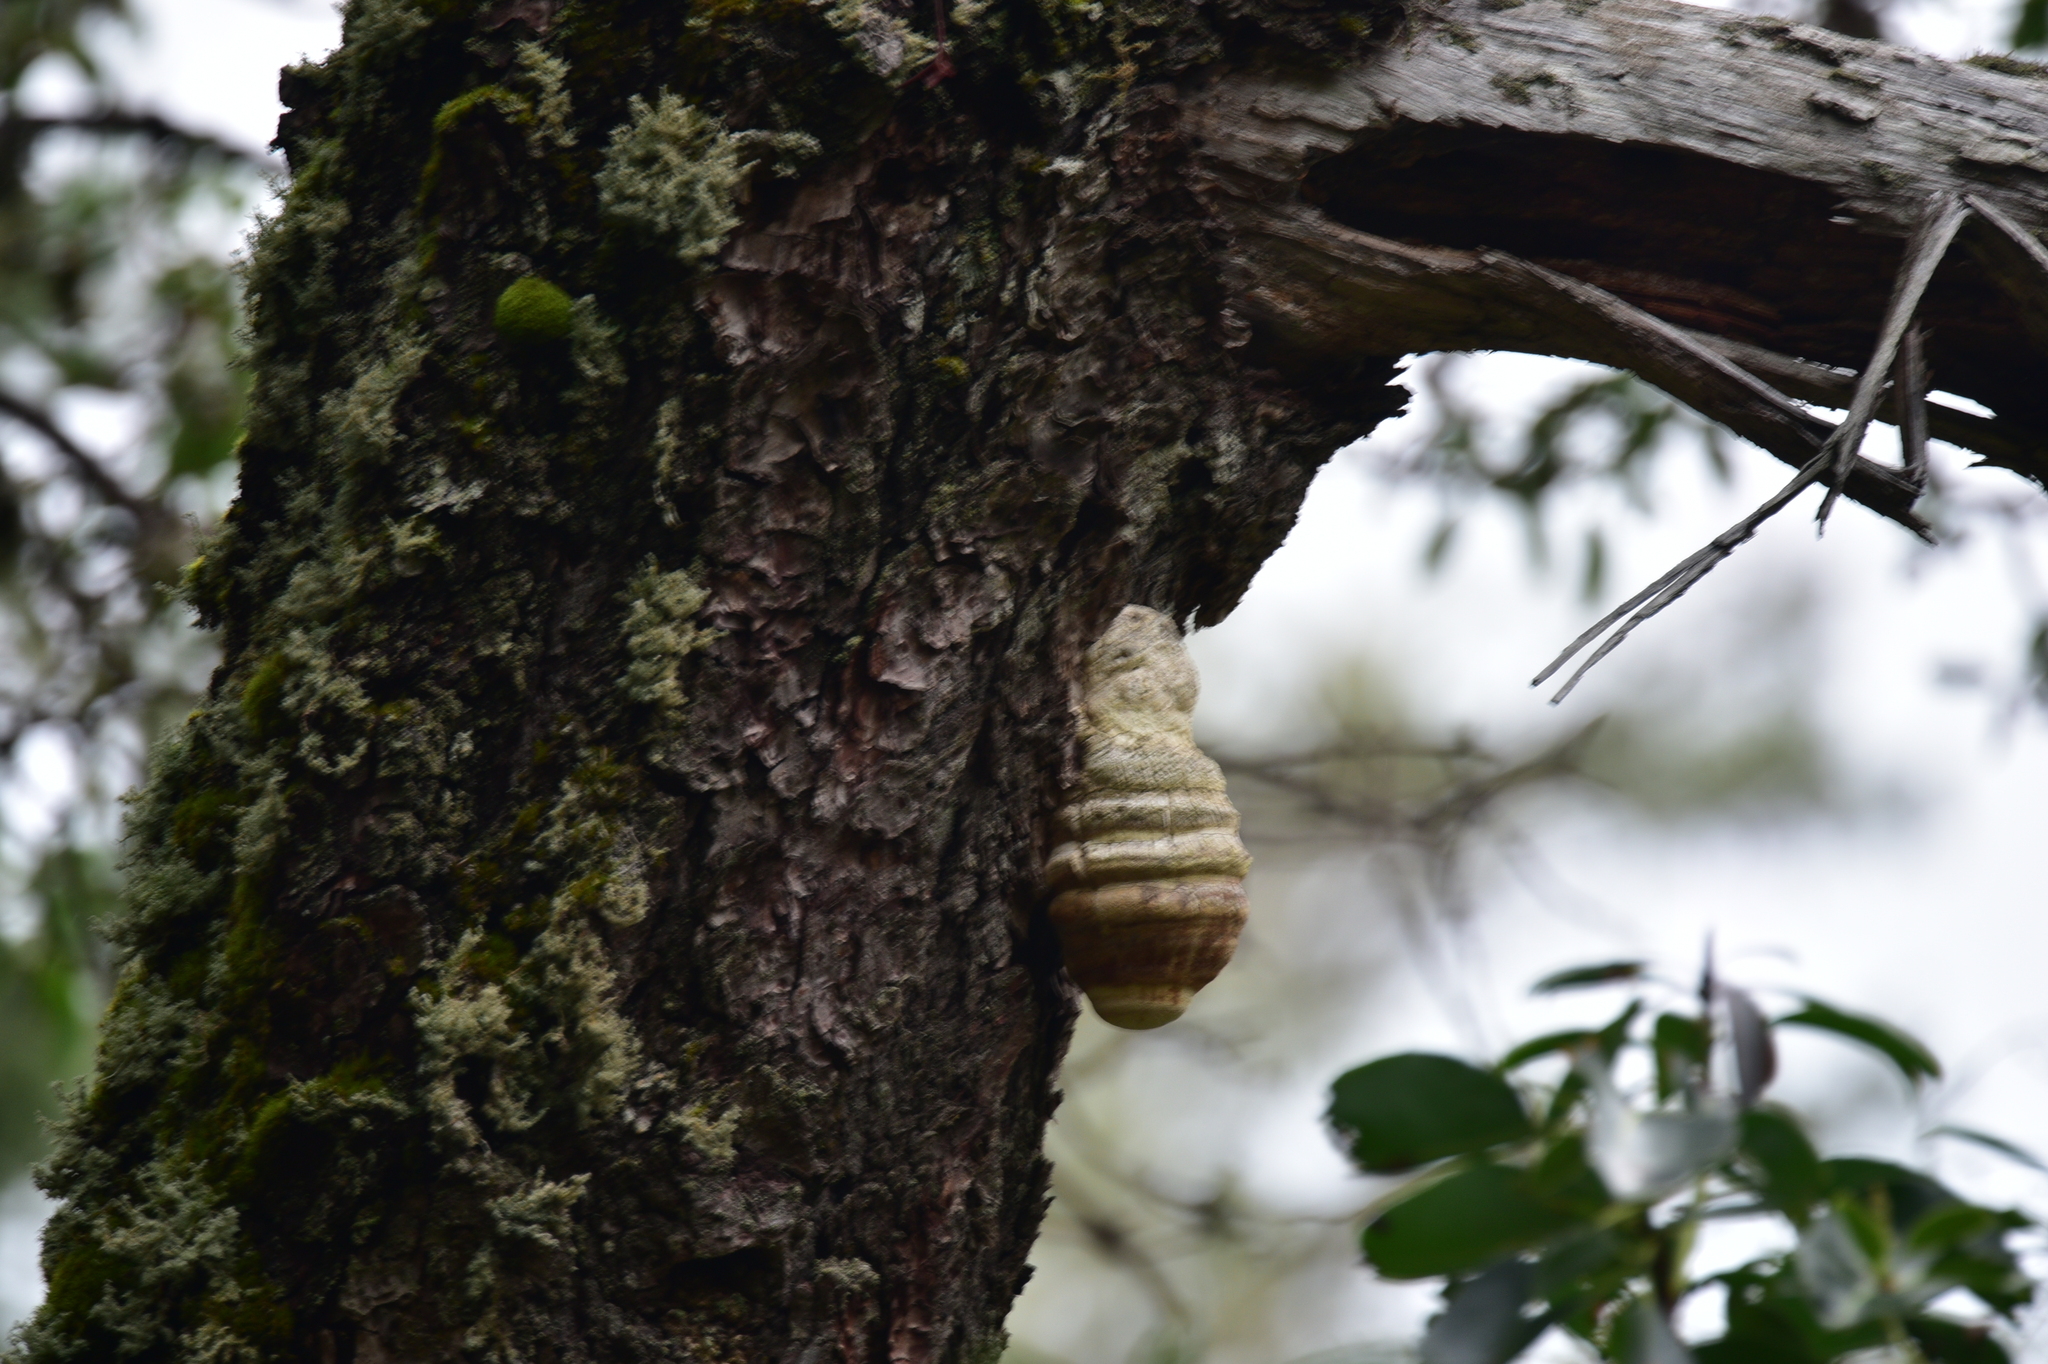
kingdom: Fungi
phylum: Basidiomycota
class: Agaricomycetes
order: Polyporales
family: Fomitopsidaceae
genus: Fomitopsis
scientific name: Fomitopsis officinalis
